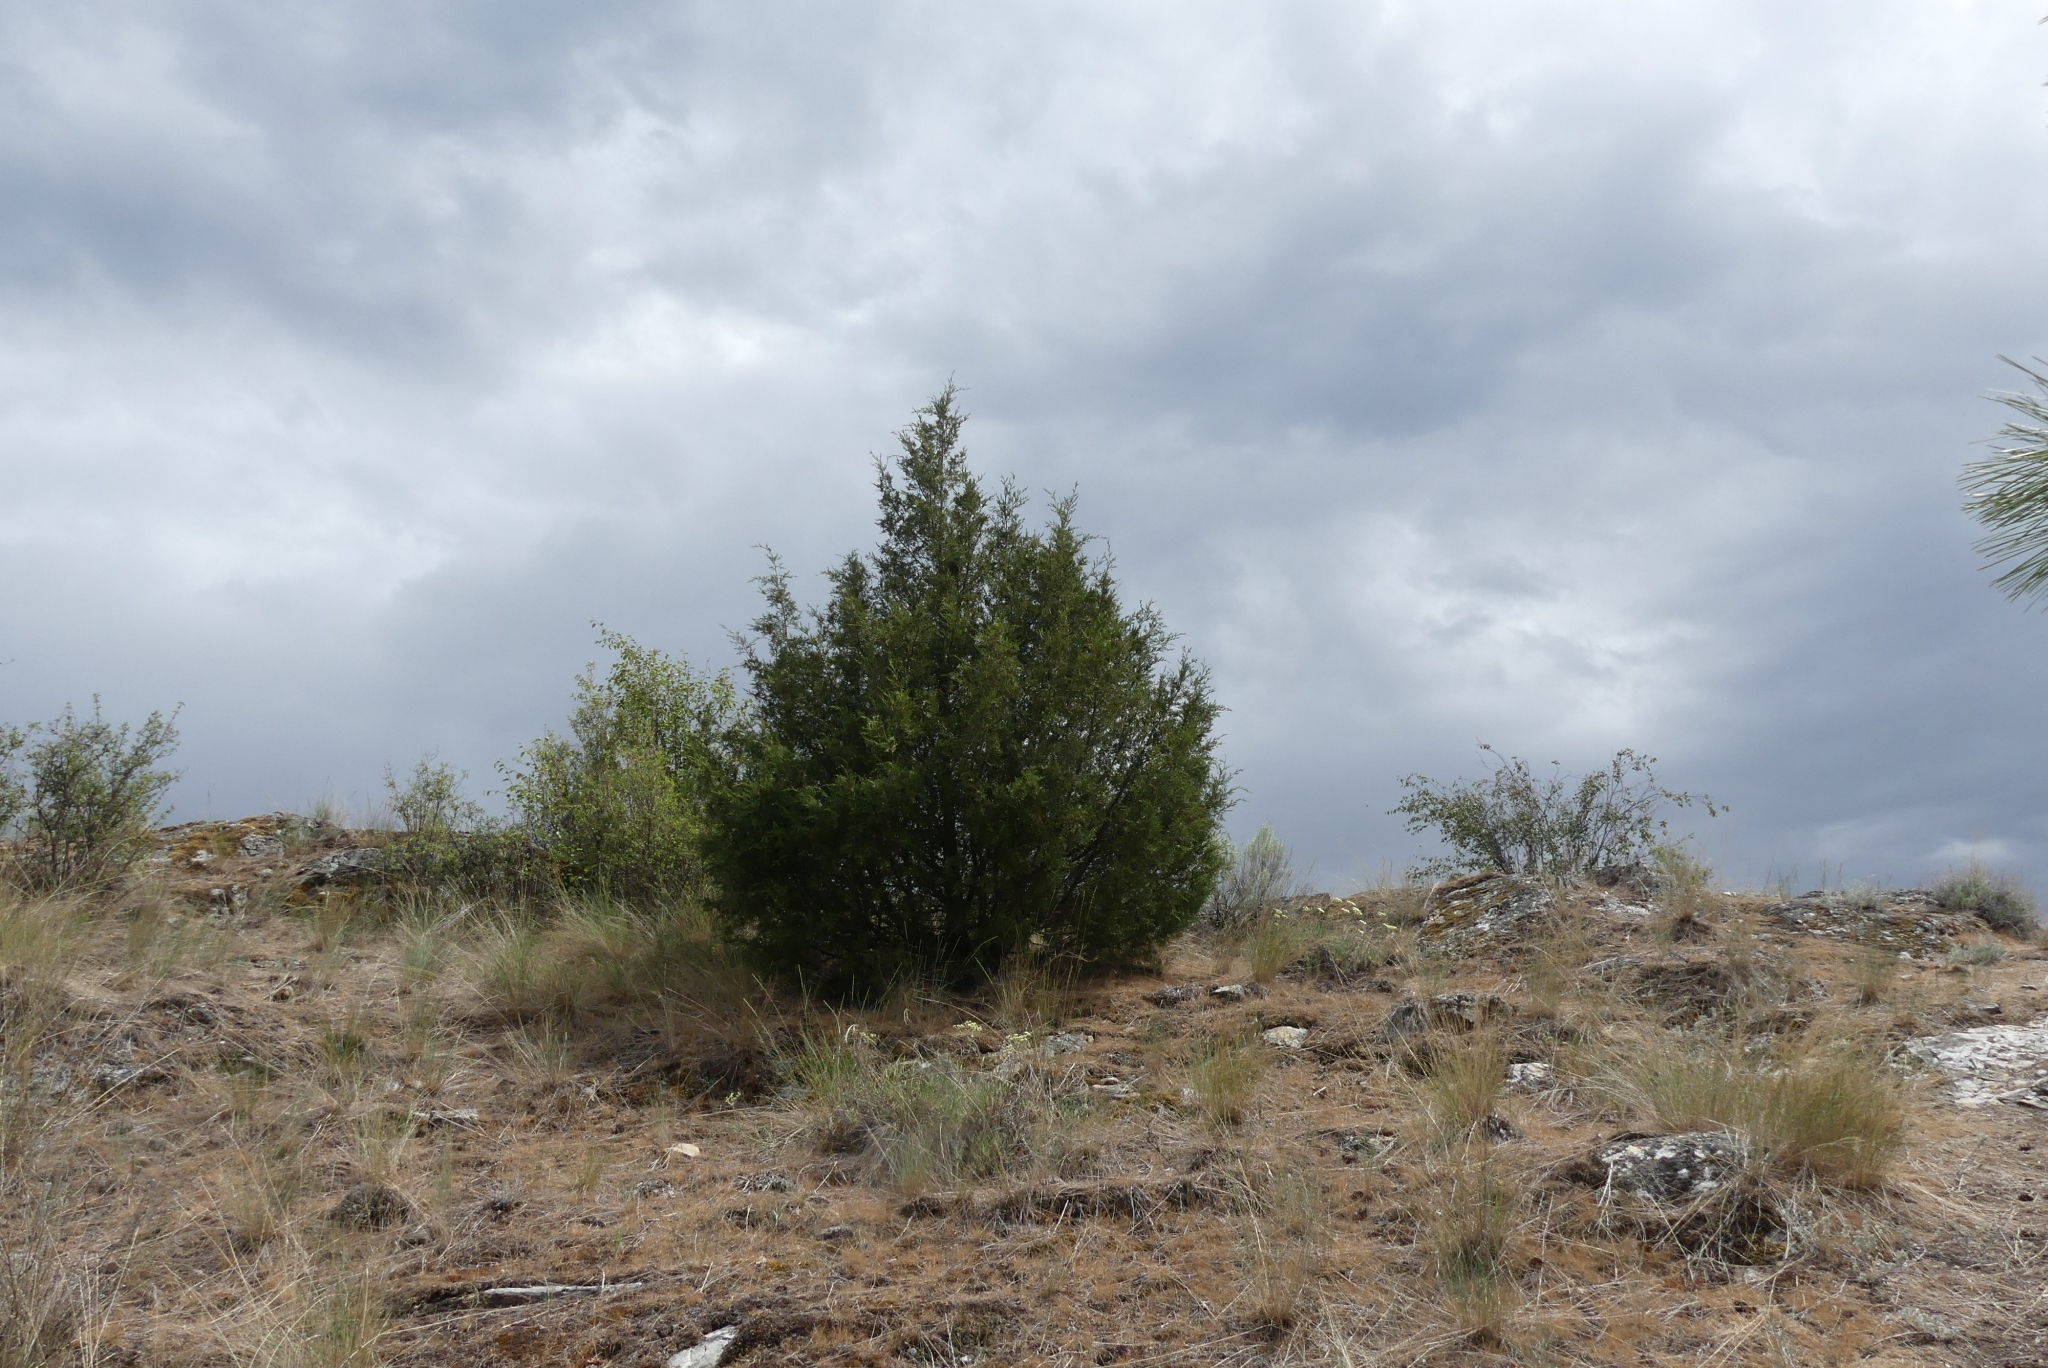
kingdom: Plantae
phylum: Tracheophyta
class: Pinopsida
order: Pinales
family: Cupressaceae
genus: Juniperus
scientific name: Juniperus scopulorum
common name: Rocky mountain juniper
